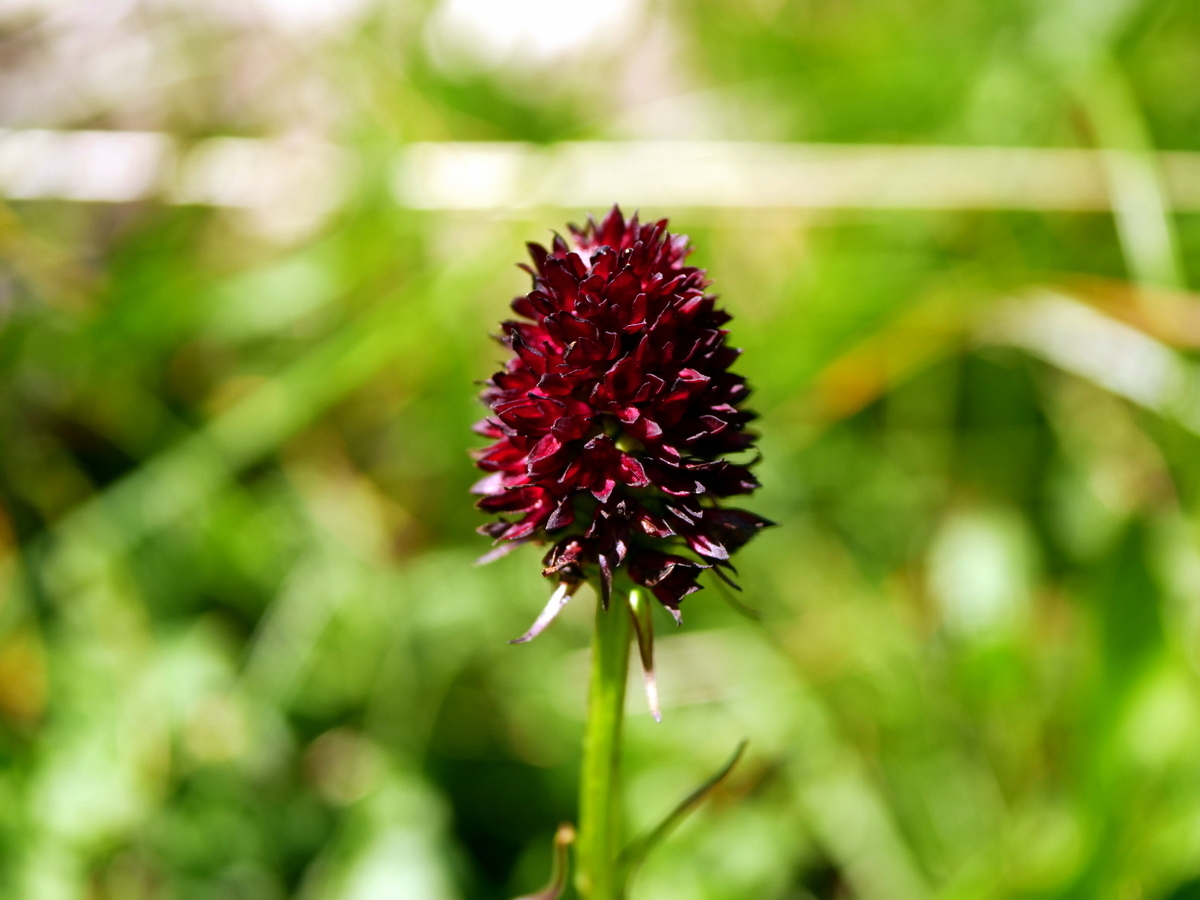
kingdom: Plantae
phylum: Tracheophyta
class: Liliopsida
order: Asparagales
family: Orchidaceae
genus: Gymnadenia
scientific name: Gymnadenia rhellicani
